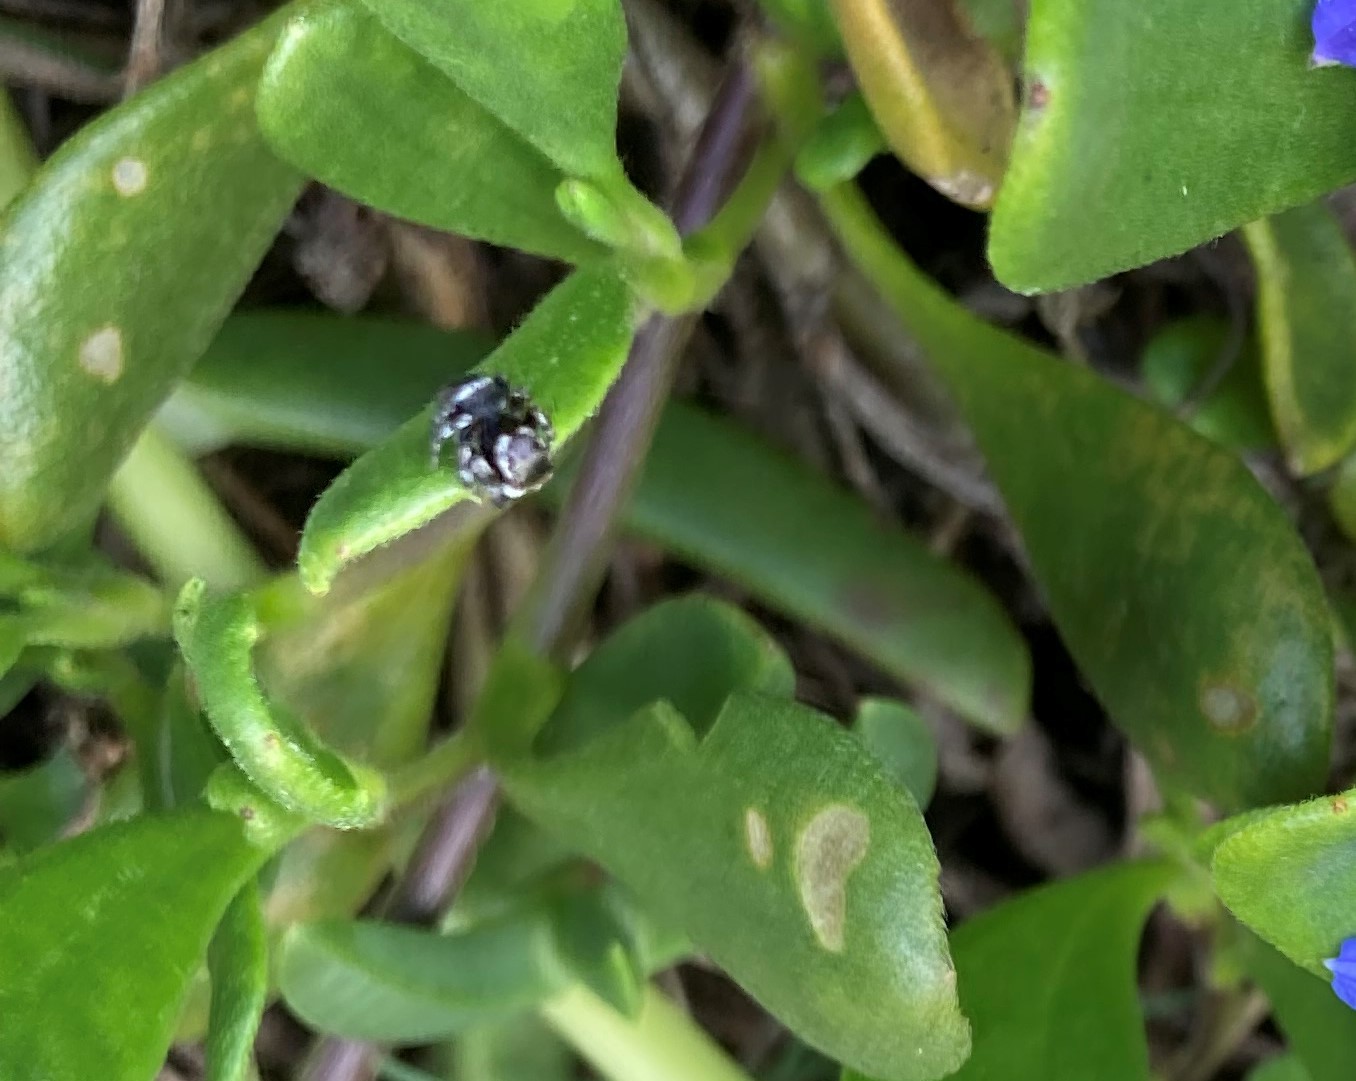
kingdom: Animalia
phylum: Arthropoda
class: Arachnida
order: Araneae
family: Salticidae
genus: Maratus
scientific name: Maratus scutulatus
